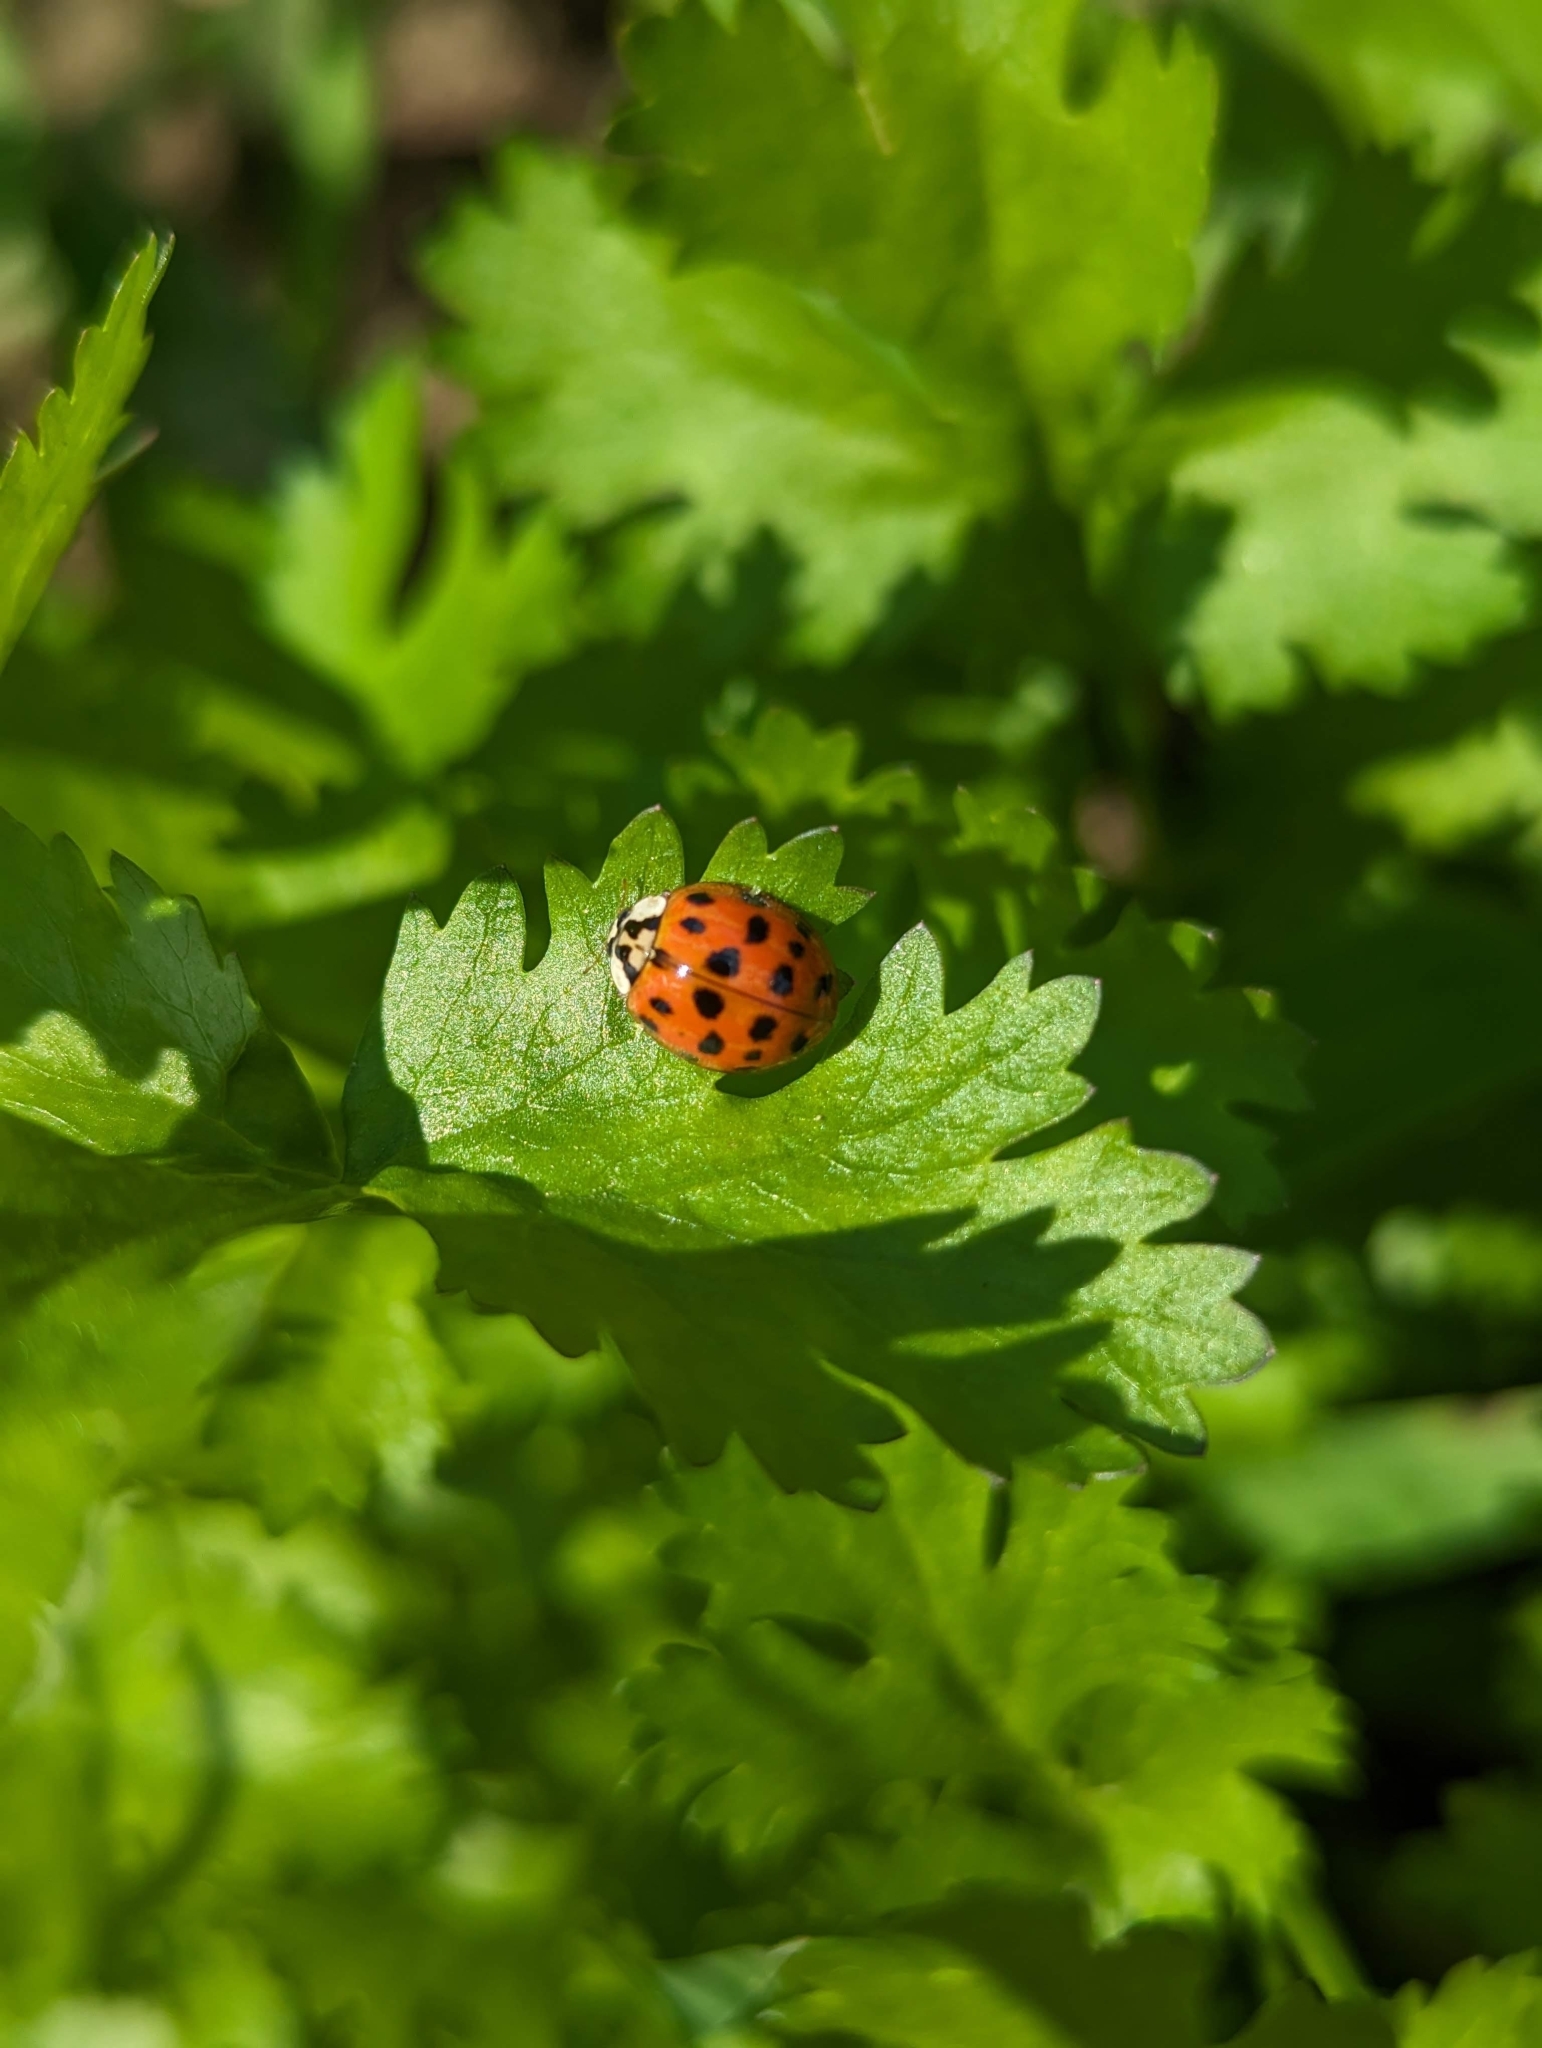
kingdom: Animalia
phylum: Arthropoda
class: Insecta
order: Coleoptera
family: Coccinellidae
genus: Harmonia
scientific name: Harmonia axyridis
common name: Harlequin ladybird
